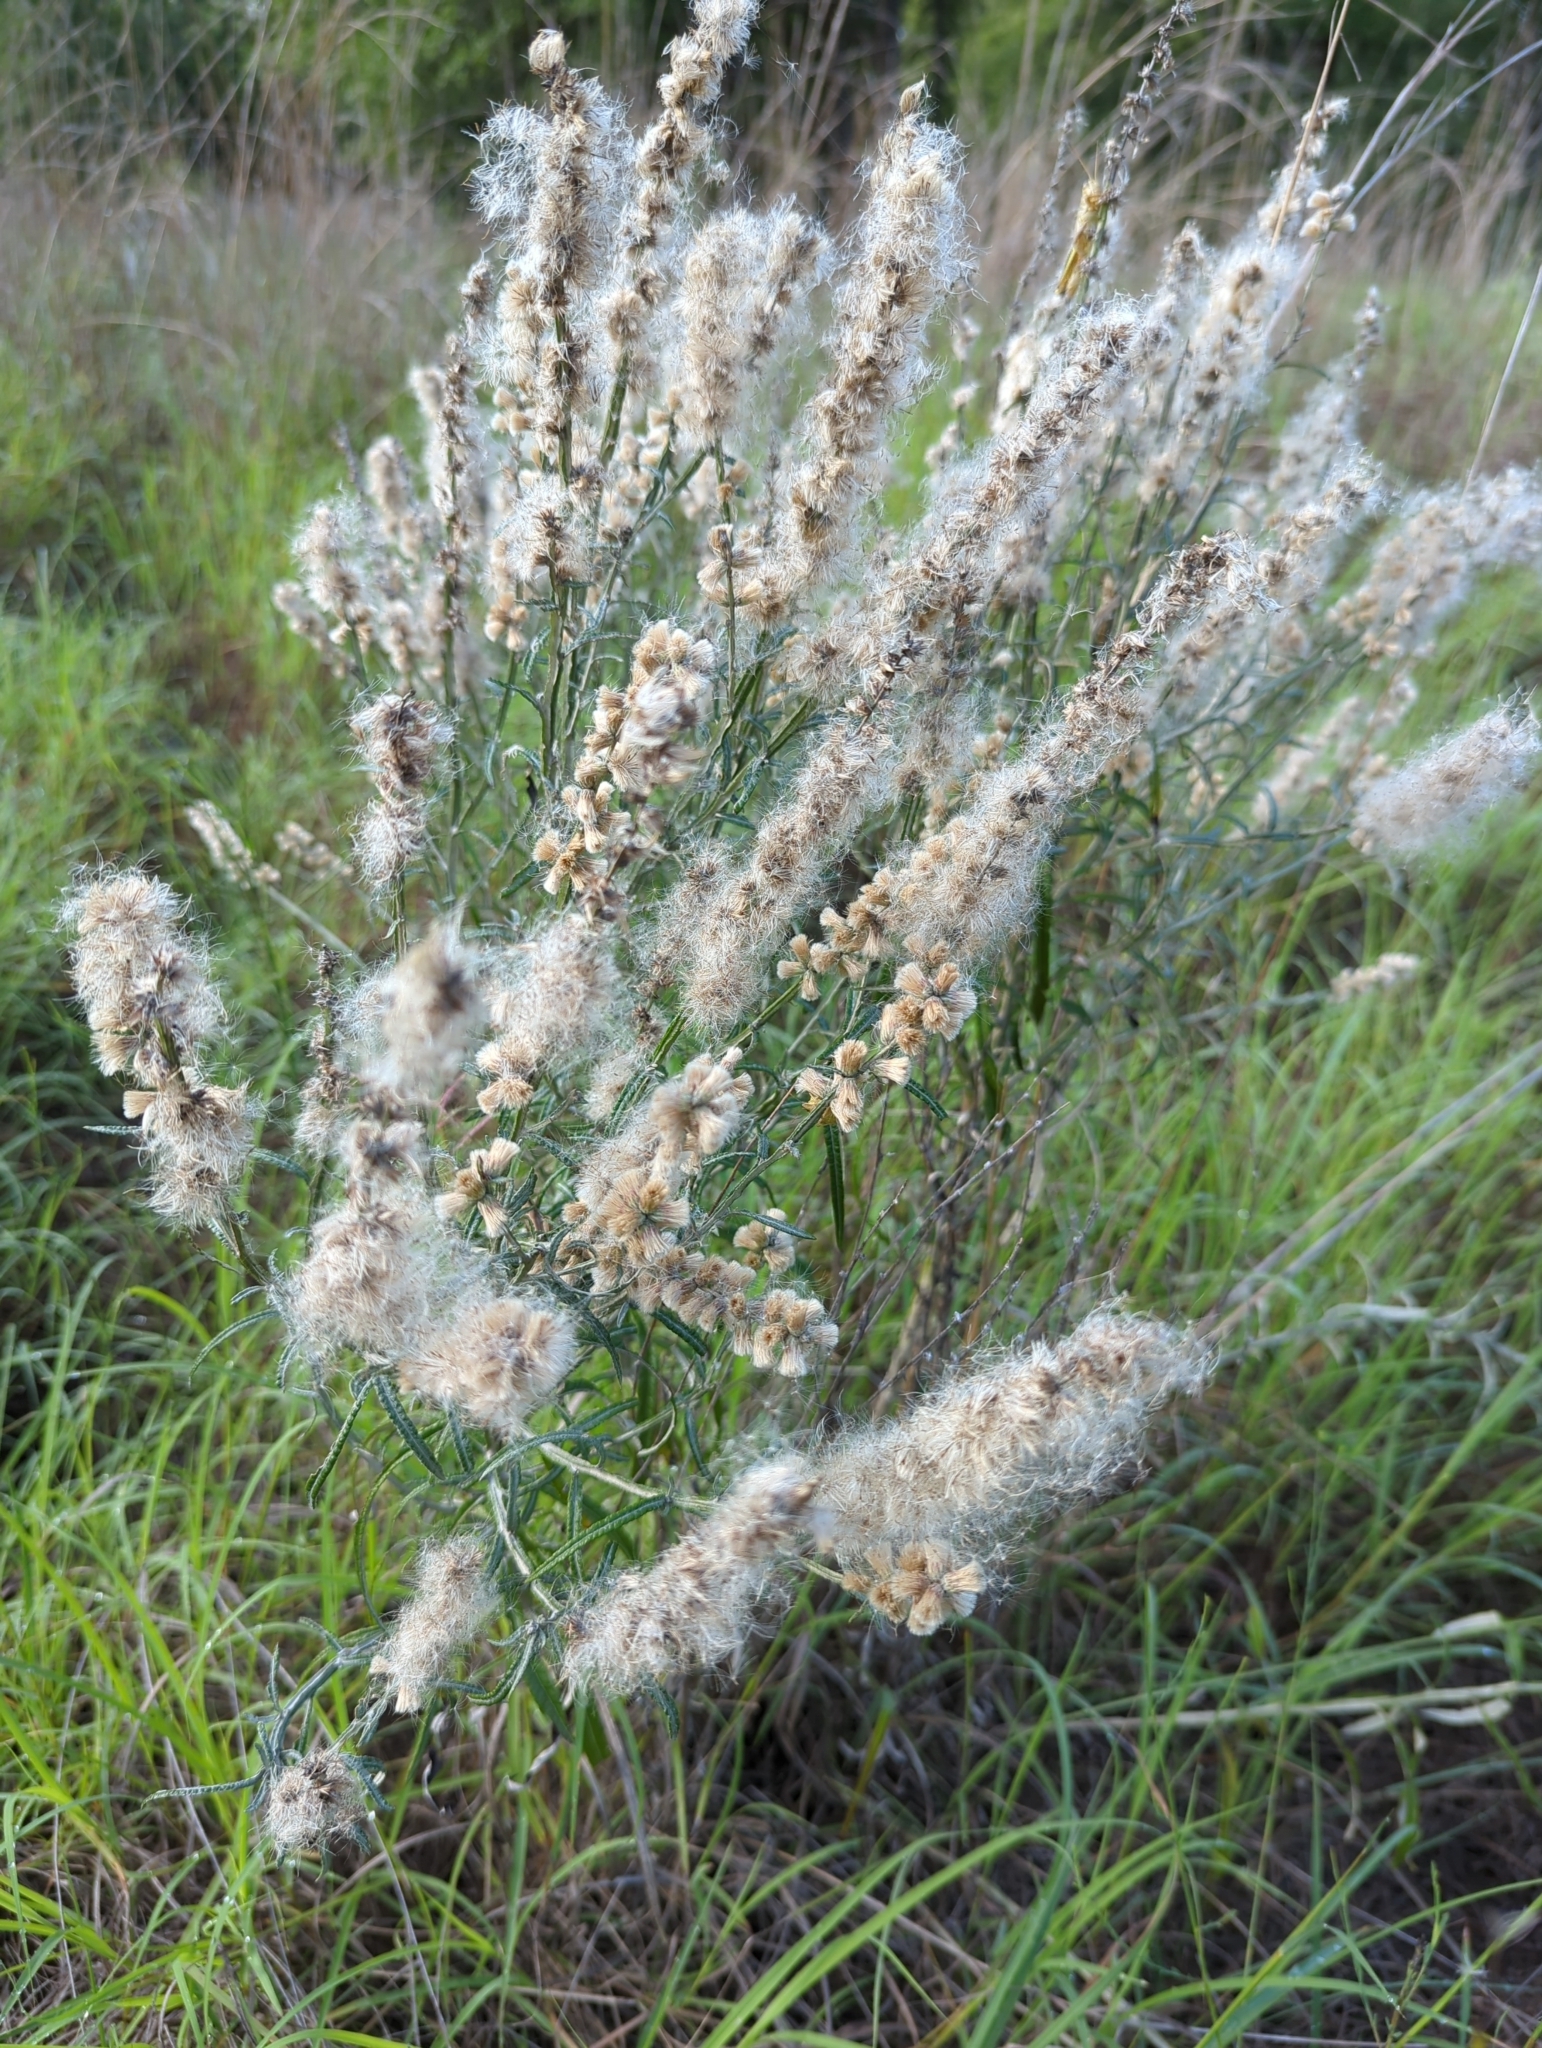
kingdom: Plantae
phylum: Tracheophyta
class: Magnoliopsida
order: Asterales
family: Asteraceae
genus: Pterocaulon
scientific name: Pterocaulon virgatum
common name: Wand blackroot
